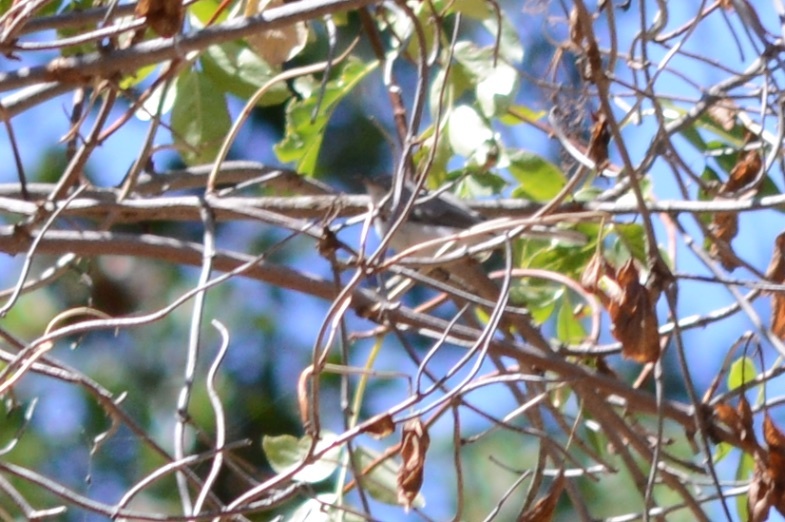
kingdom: Animalia
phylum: Chordata
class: Aves
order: Passeriformes
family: Polioptilidae
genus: Polioptila
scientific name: Polioptila caerulea
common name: Blue-gray gnatcatcher
